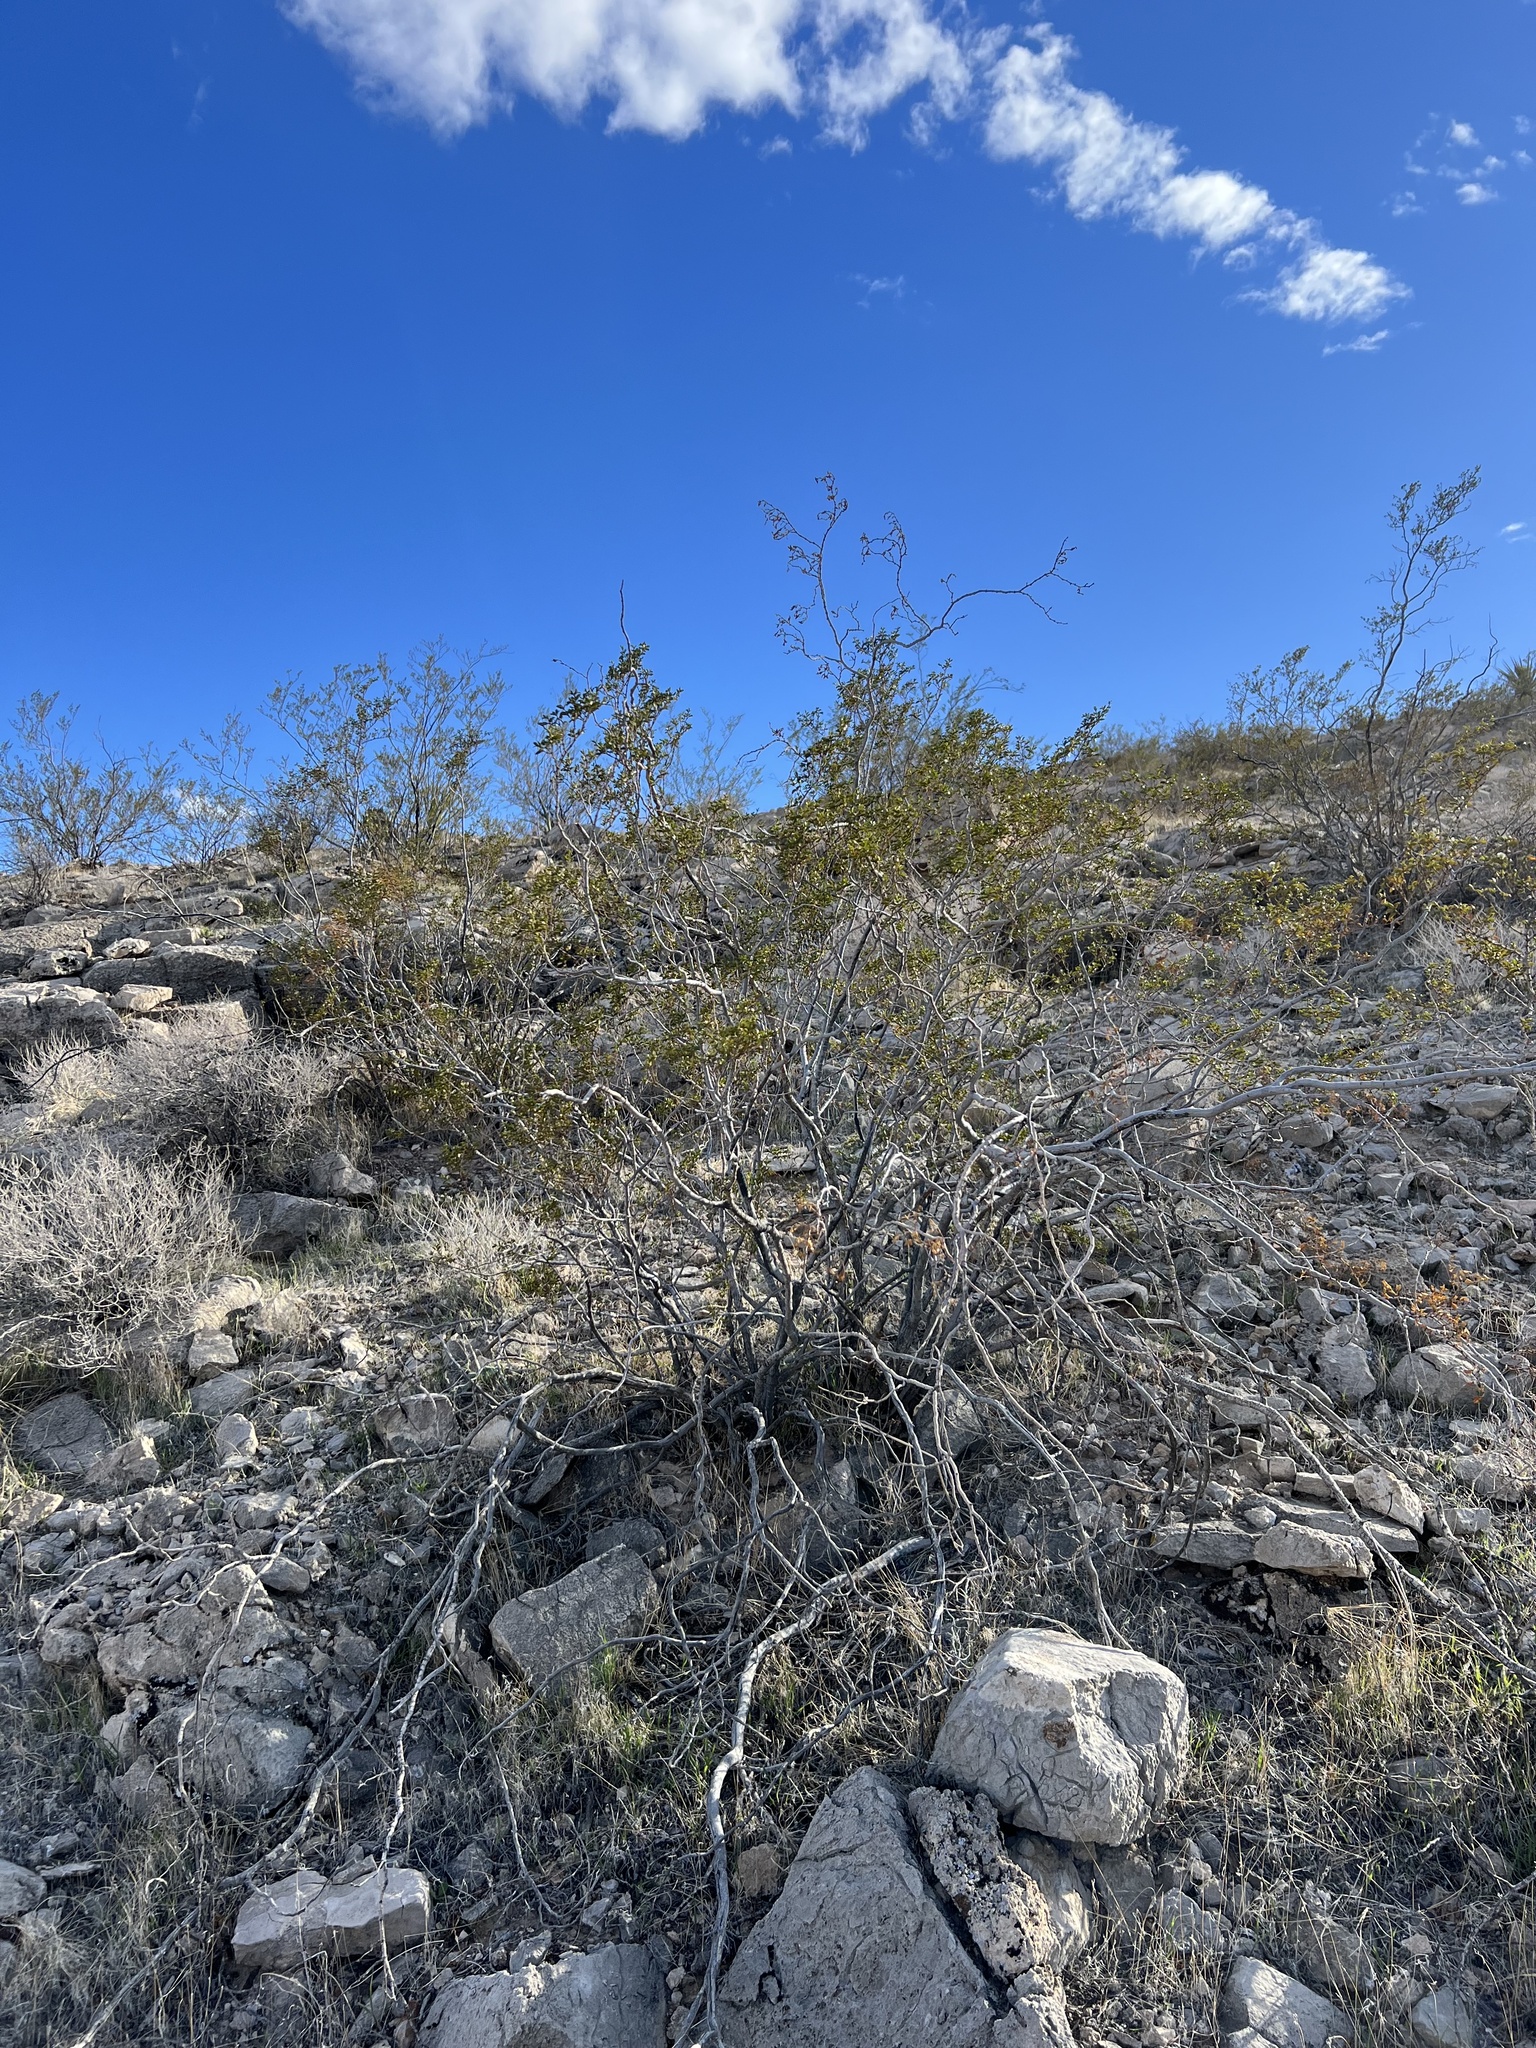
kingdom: Plantae
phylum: Tracheophyta
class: Magnoliopsida
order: Zygophyllales
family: Zygophyllaceae
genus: Larrea
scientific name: Larrea tridentata
